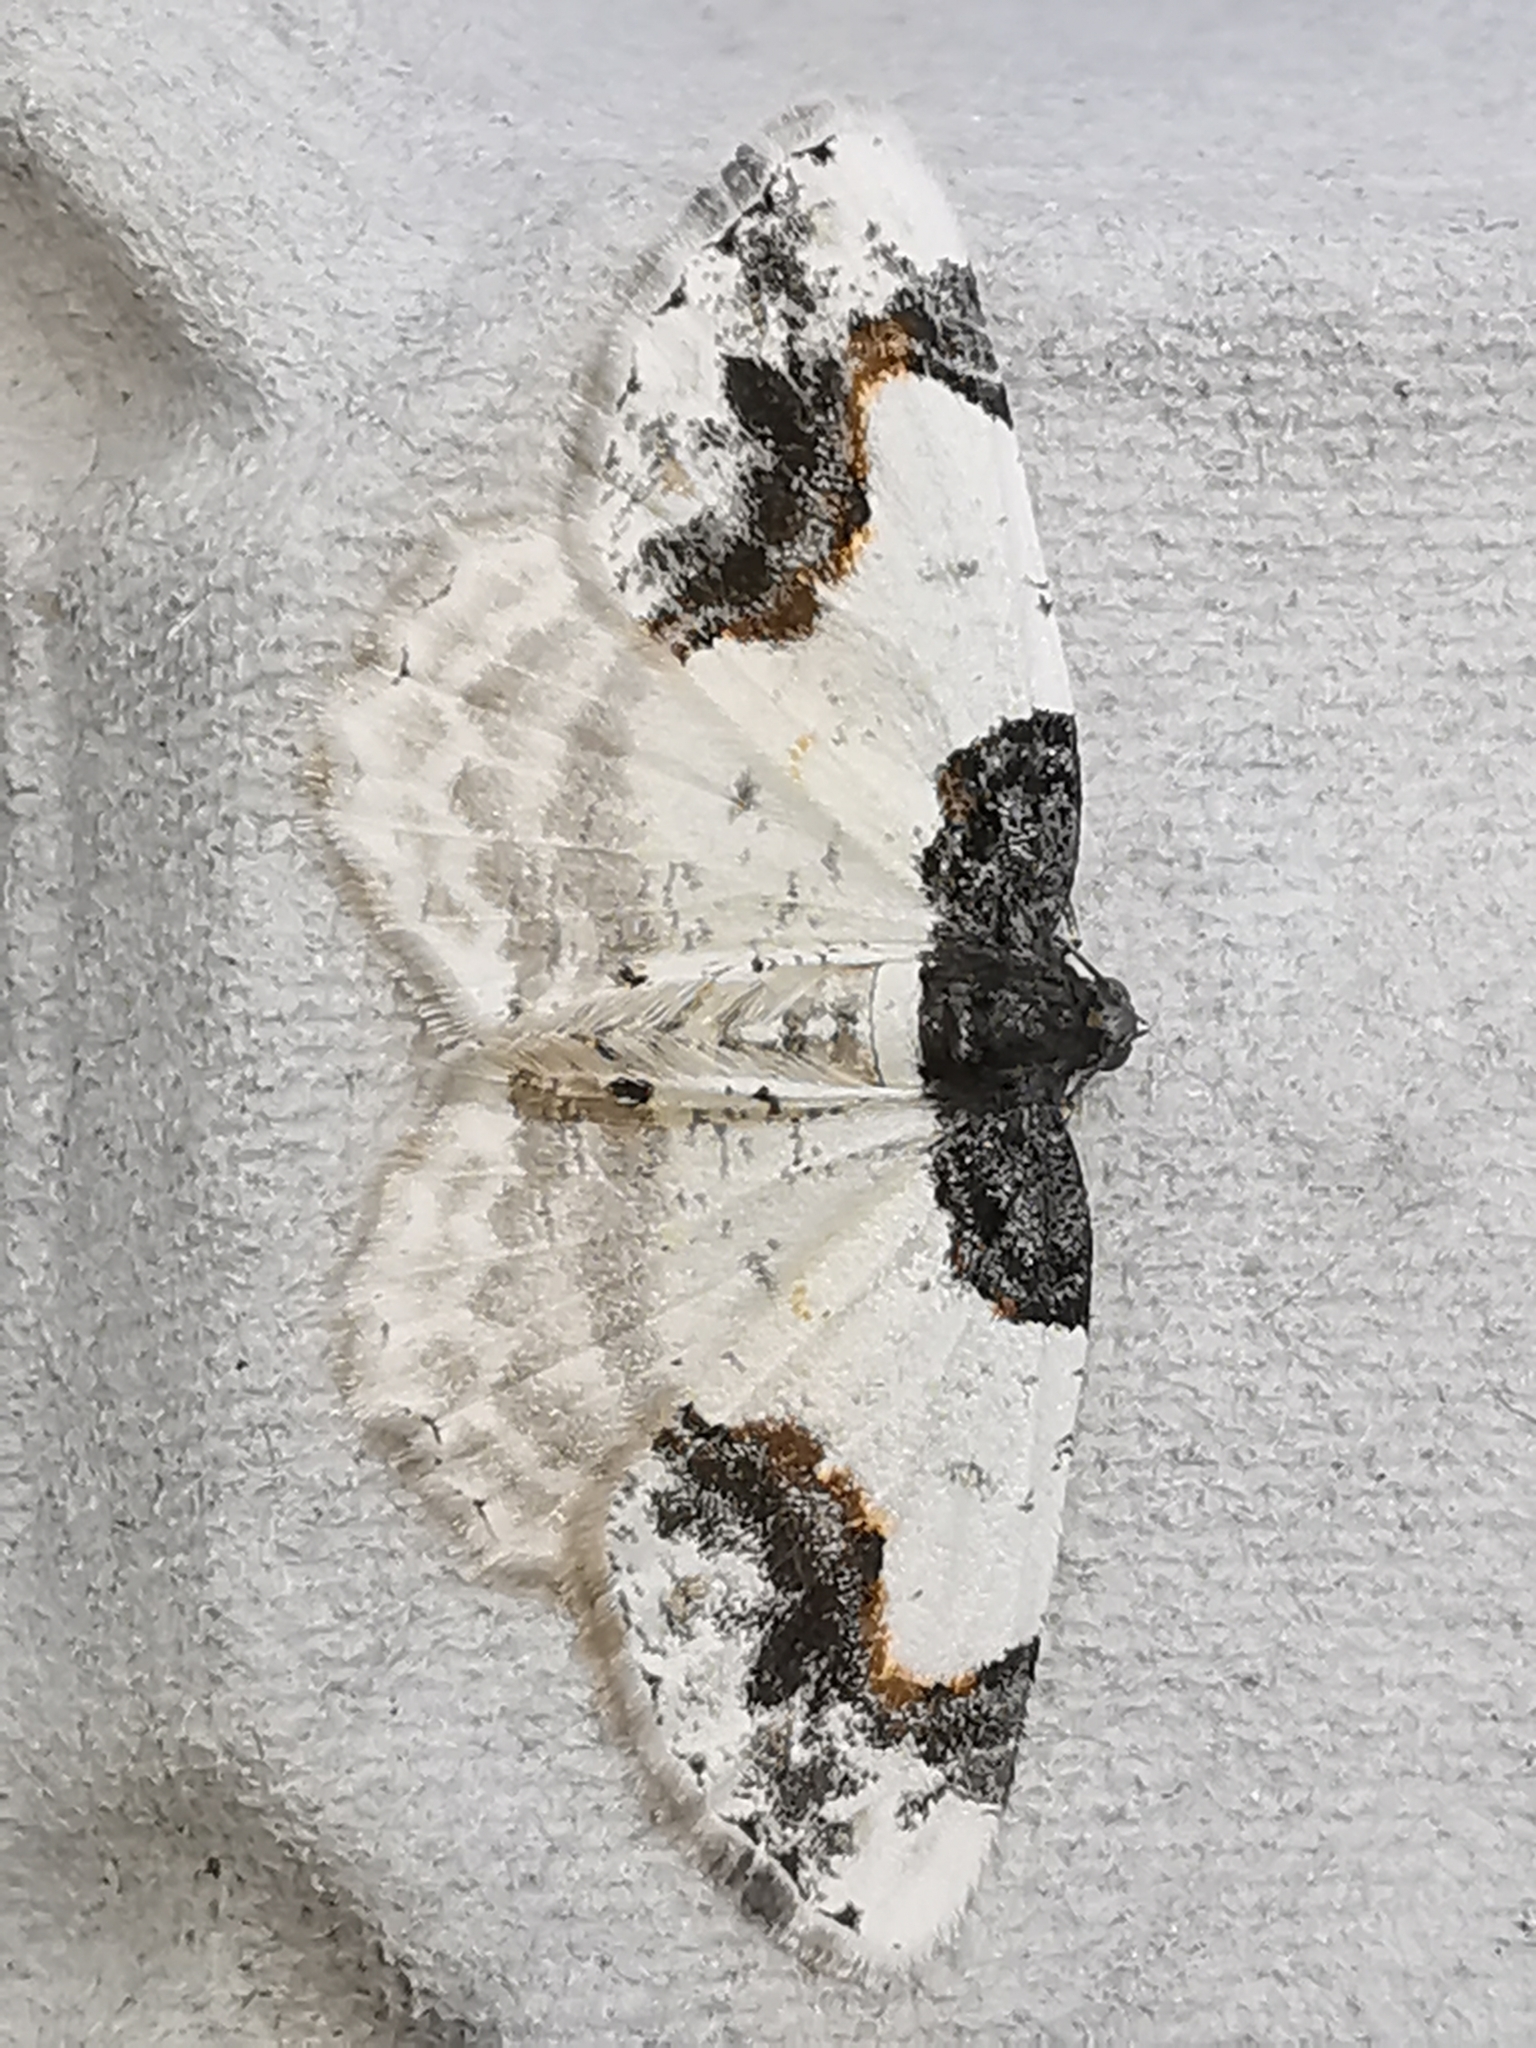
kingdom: Animalia
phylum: Arthropoda
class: Insecta
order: Lepidoptera
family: Geometridae
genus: Ligdia
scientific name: Ligdia adustata
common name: Scorched carpet
